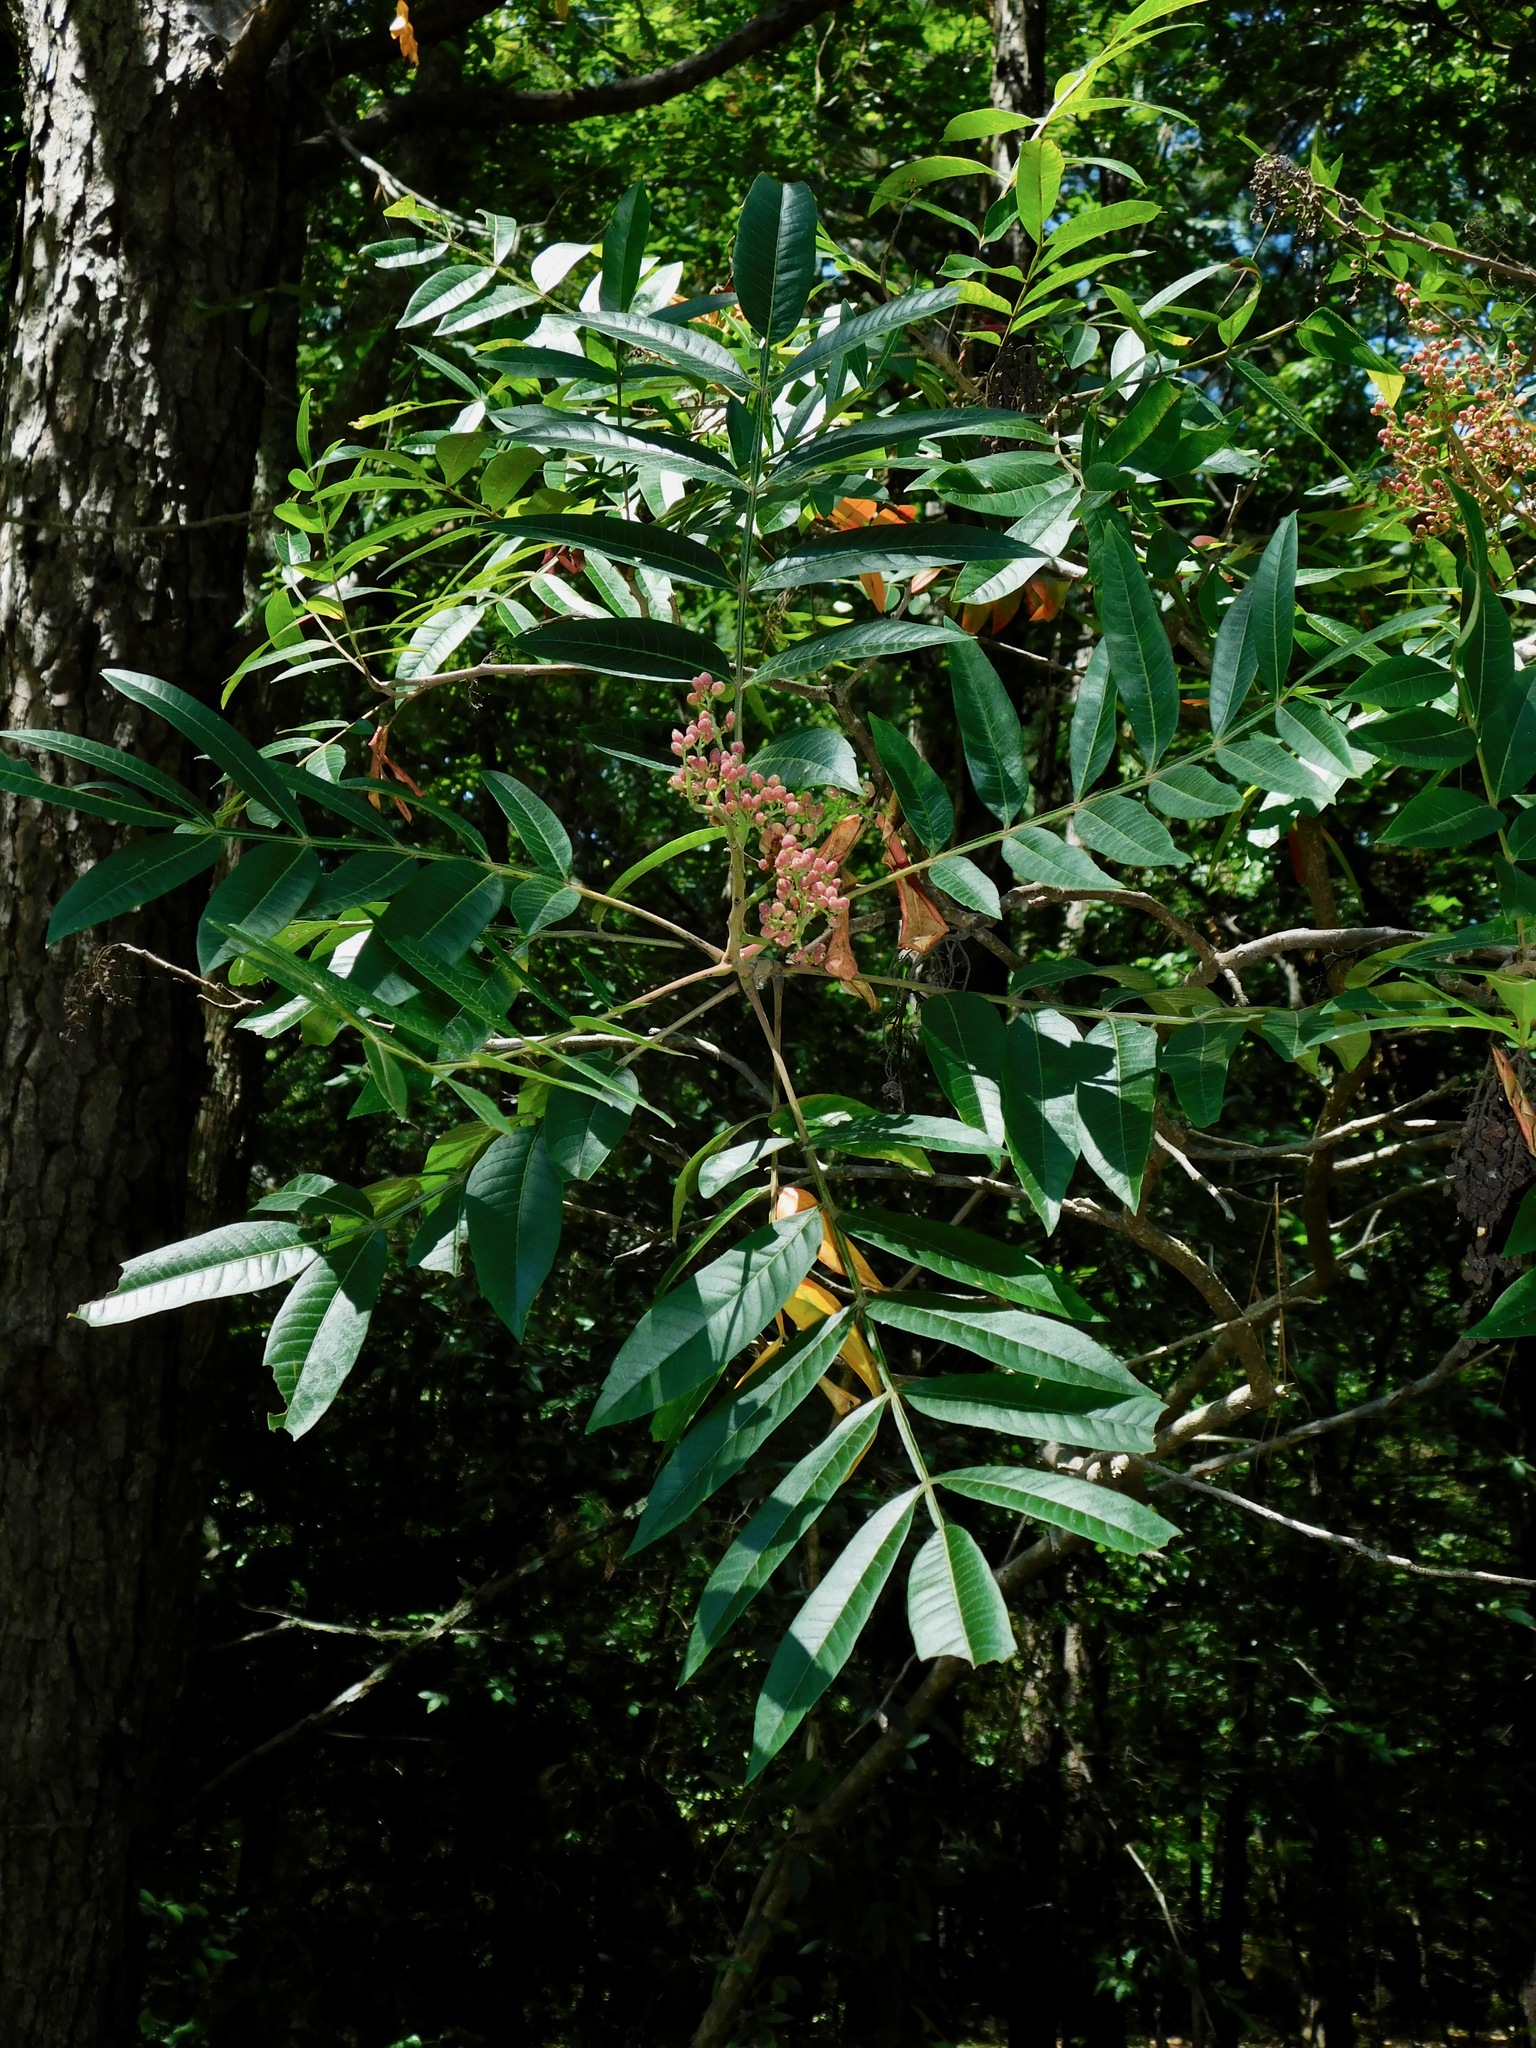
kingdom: Plantae
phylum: Tracheophyta
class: Magnoliopsida
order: Sapindales
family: Anacardiaceae
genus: Rhus
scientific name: Rhus copallina
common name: Shining sumac
